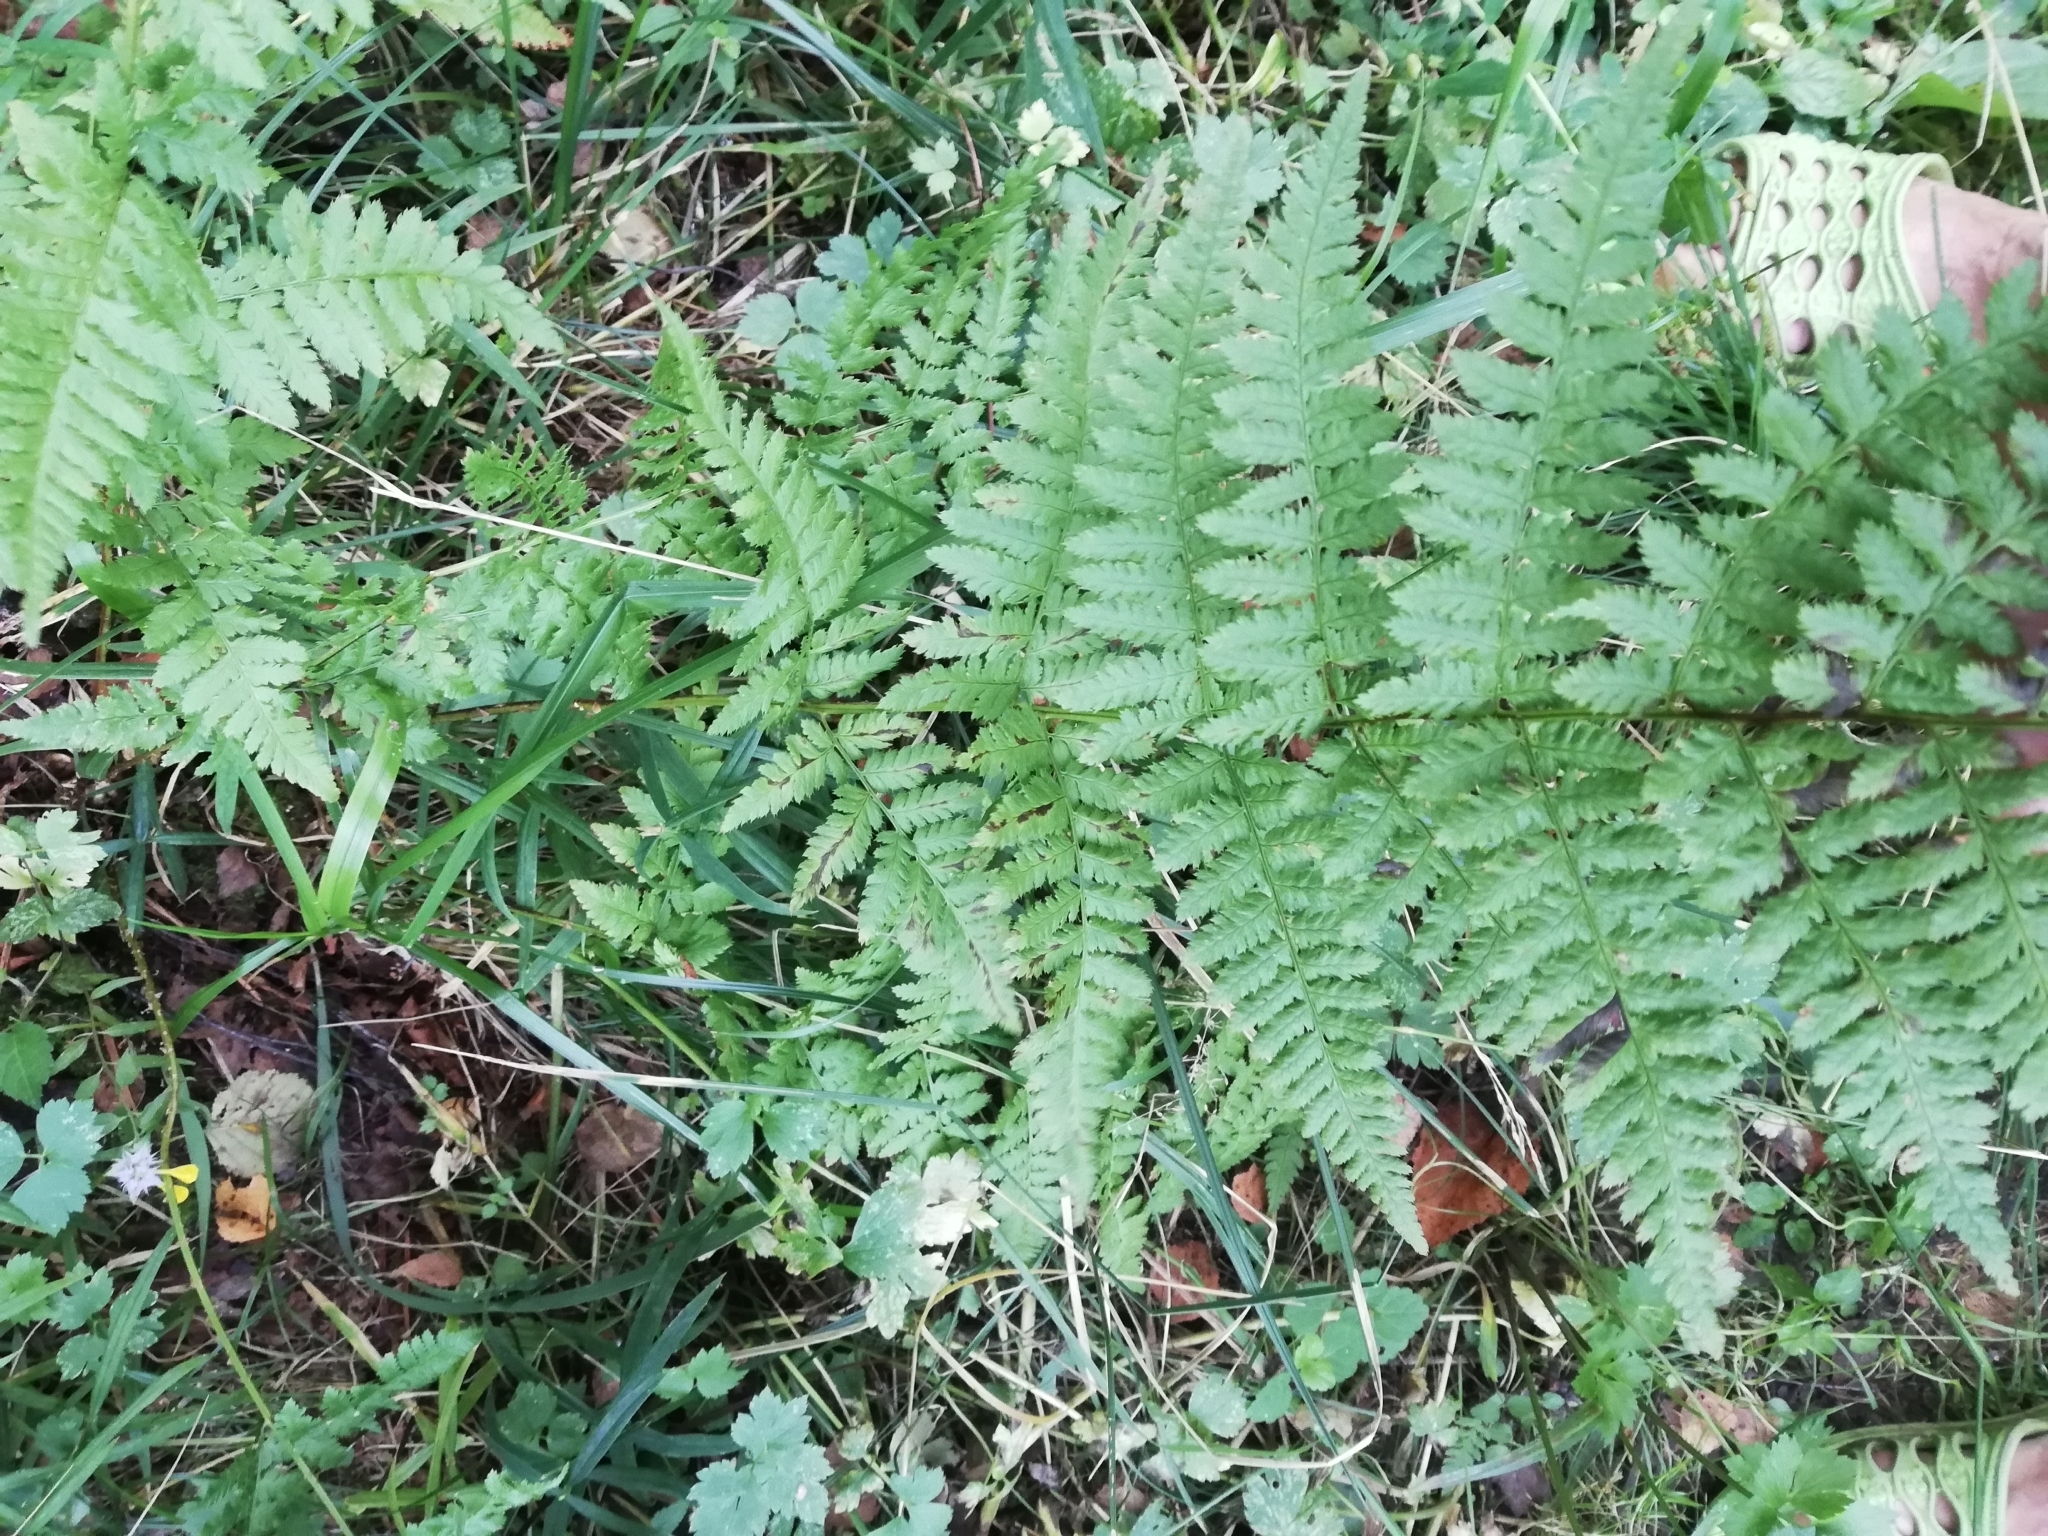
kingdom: Plantae
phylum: Tracheophyta
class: Polypodiopsida
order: Polypodiales
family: Dryopteridaceae
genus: Dryopteris
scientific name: Dryopteris carthusiana
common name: Narrow buckler-fern
